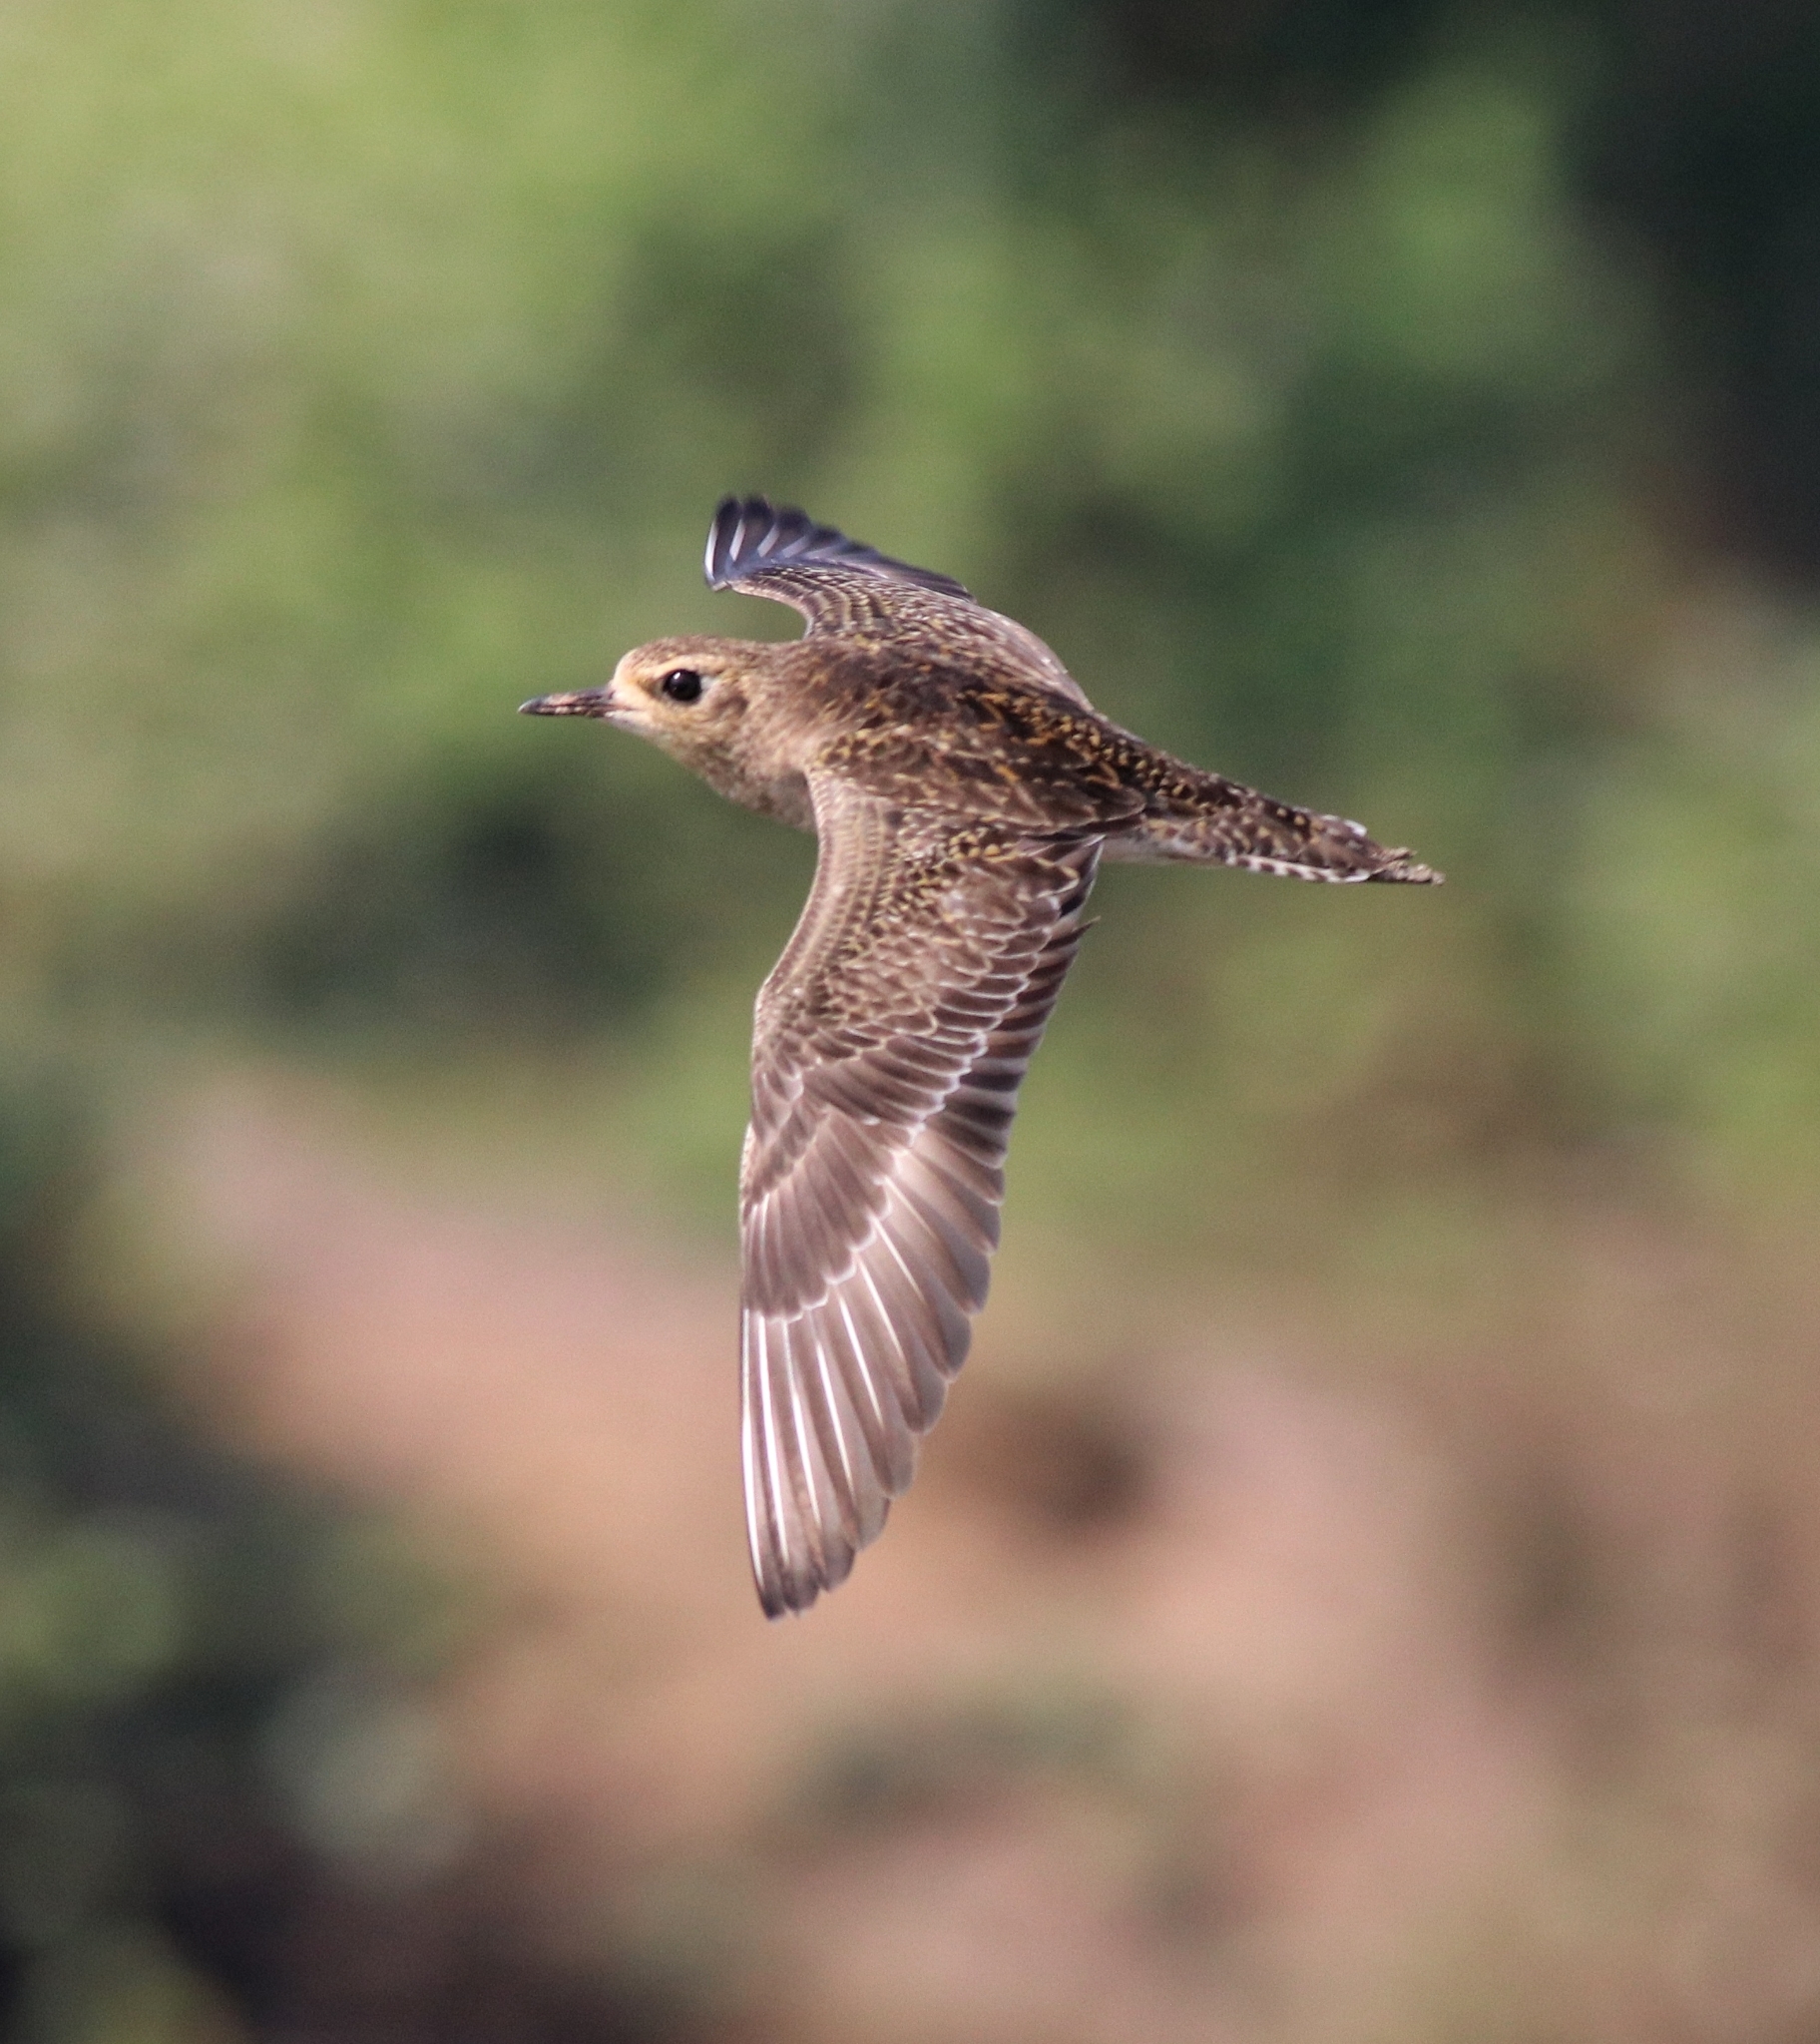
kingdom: Animalia
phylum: Chordata
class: Aves
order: Charadriiformes
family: Charadriidae
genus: Pluvialis
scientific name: Pluvialis fulva
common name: Pacific golden plover
